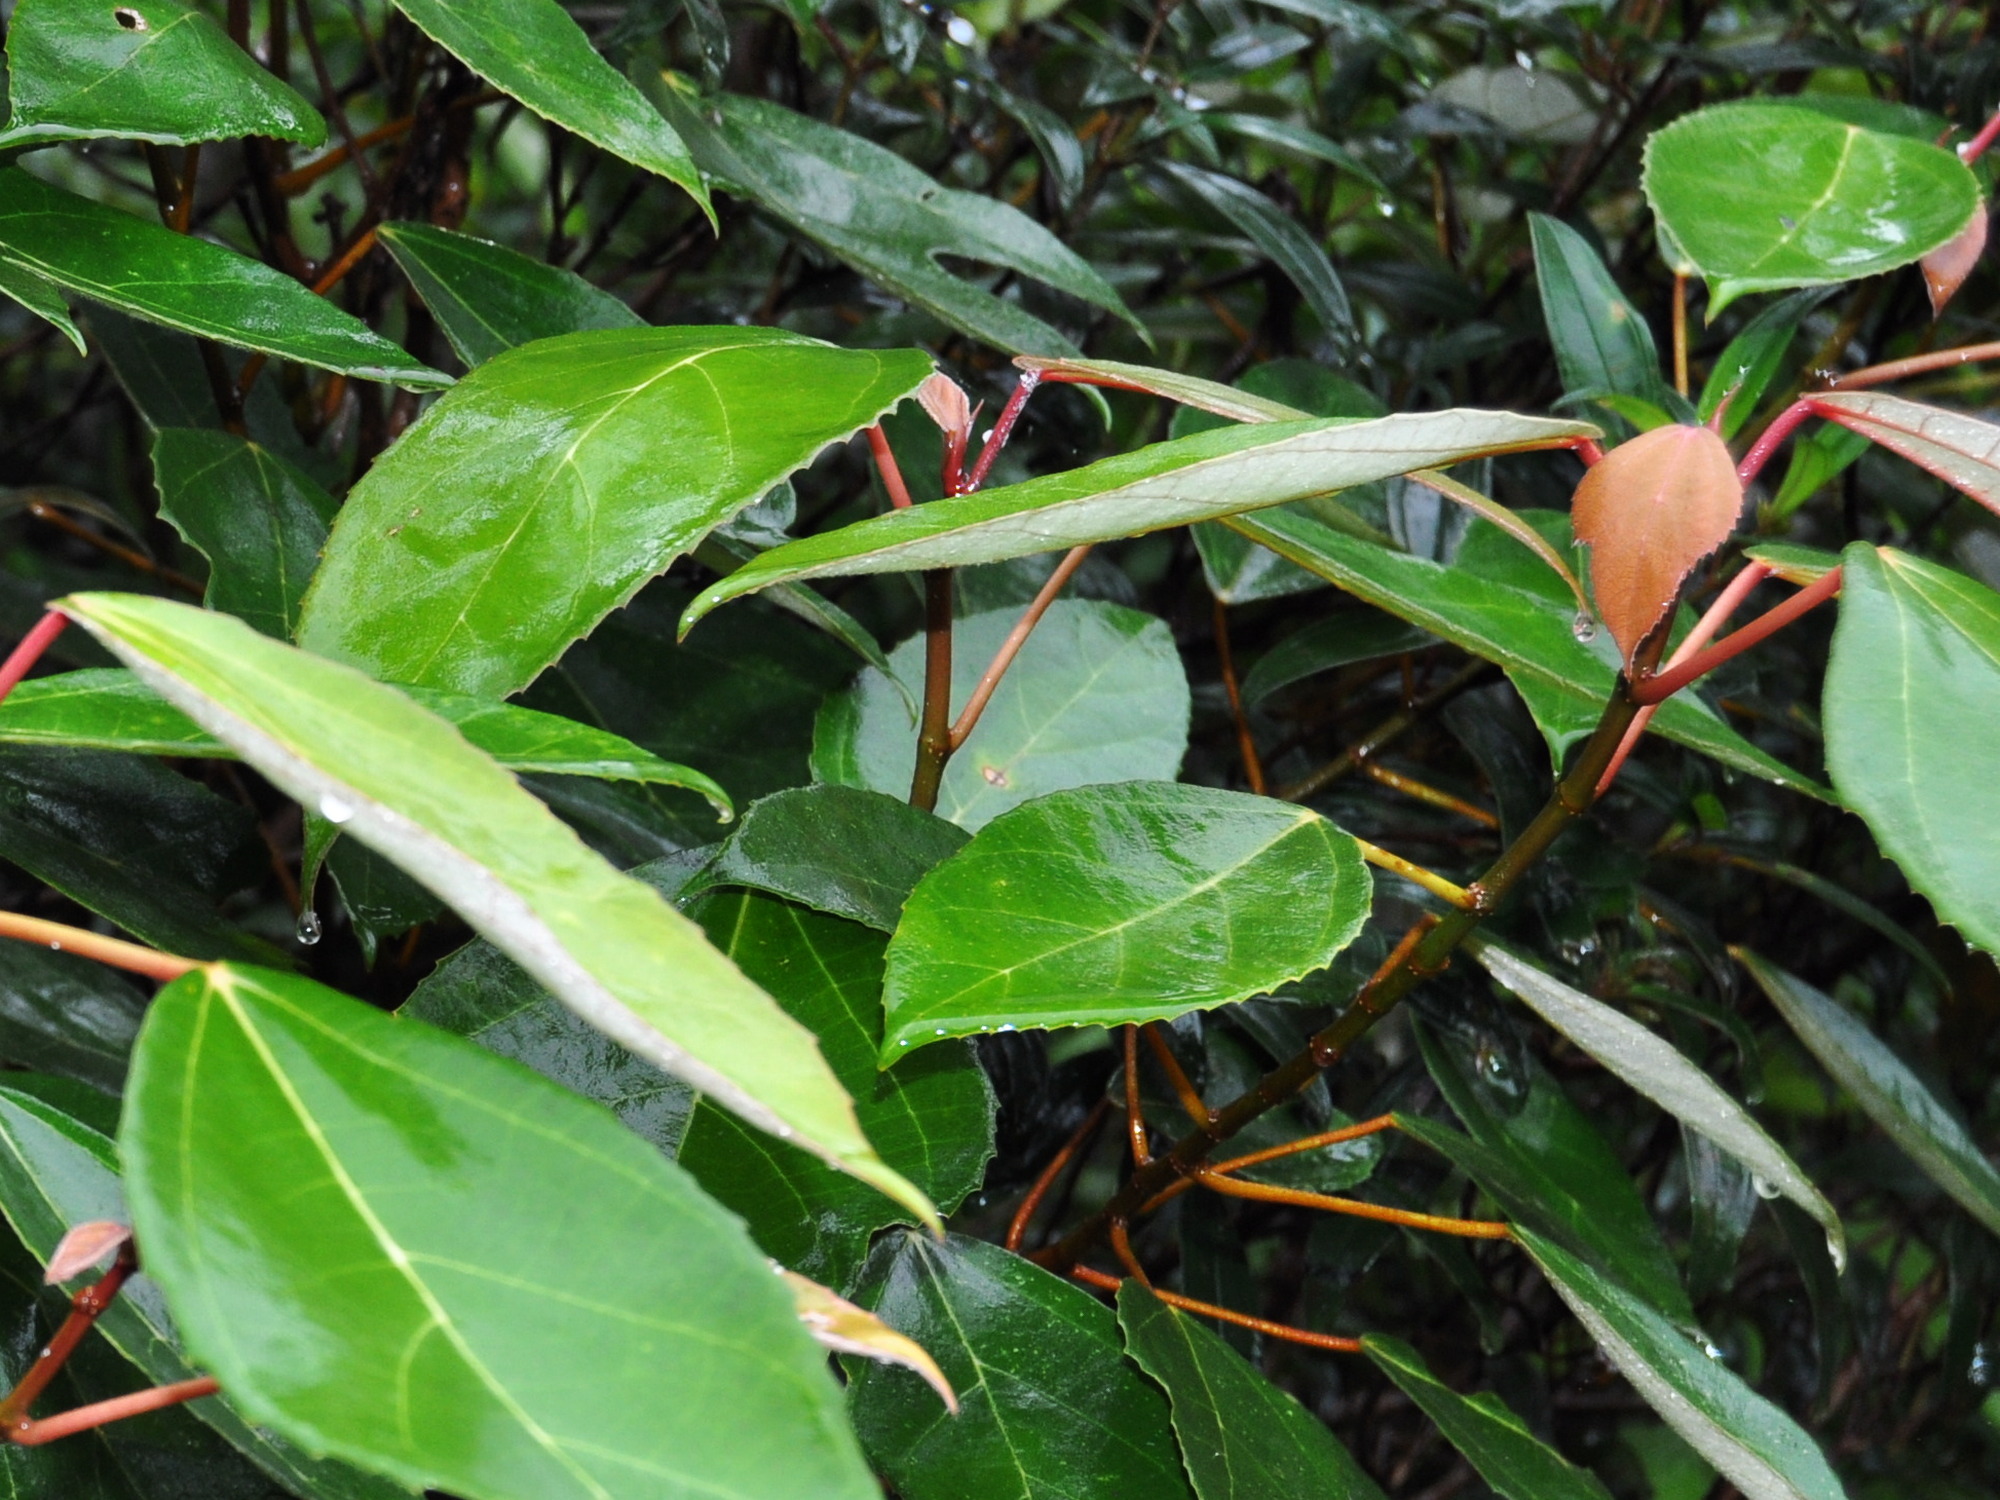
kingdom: Plantae
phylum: Tracheophyta
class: Magnoliopsida
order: Rosales
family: Moraceae
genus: Ficus
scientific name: Ficus grossularioides
